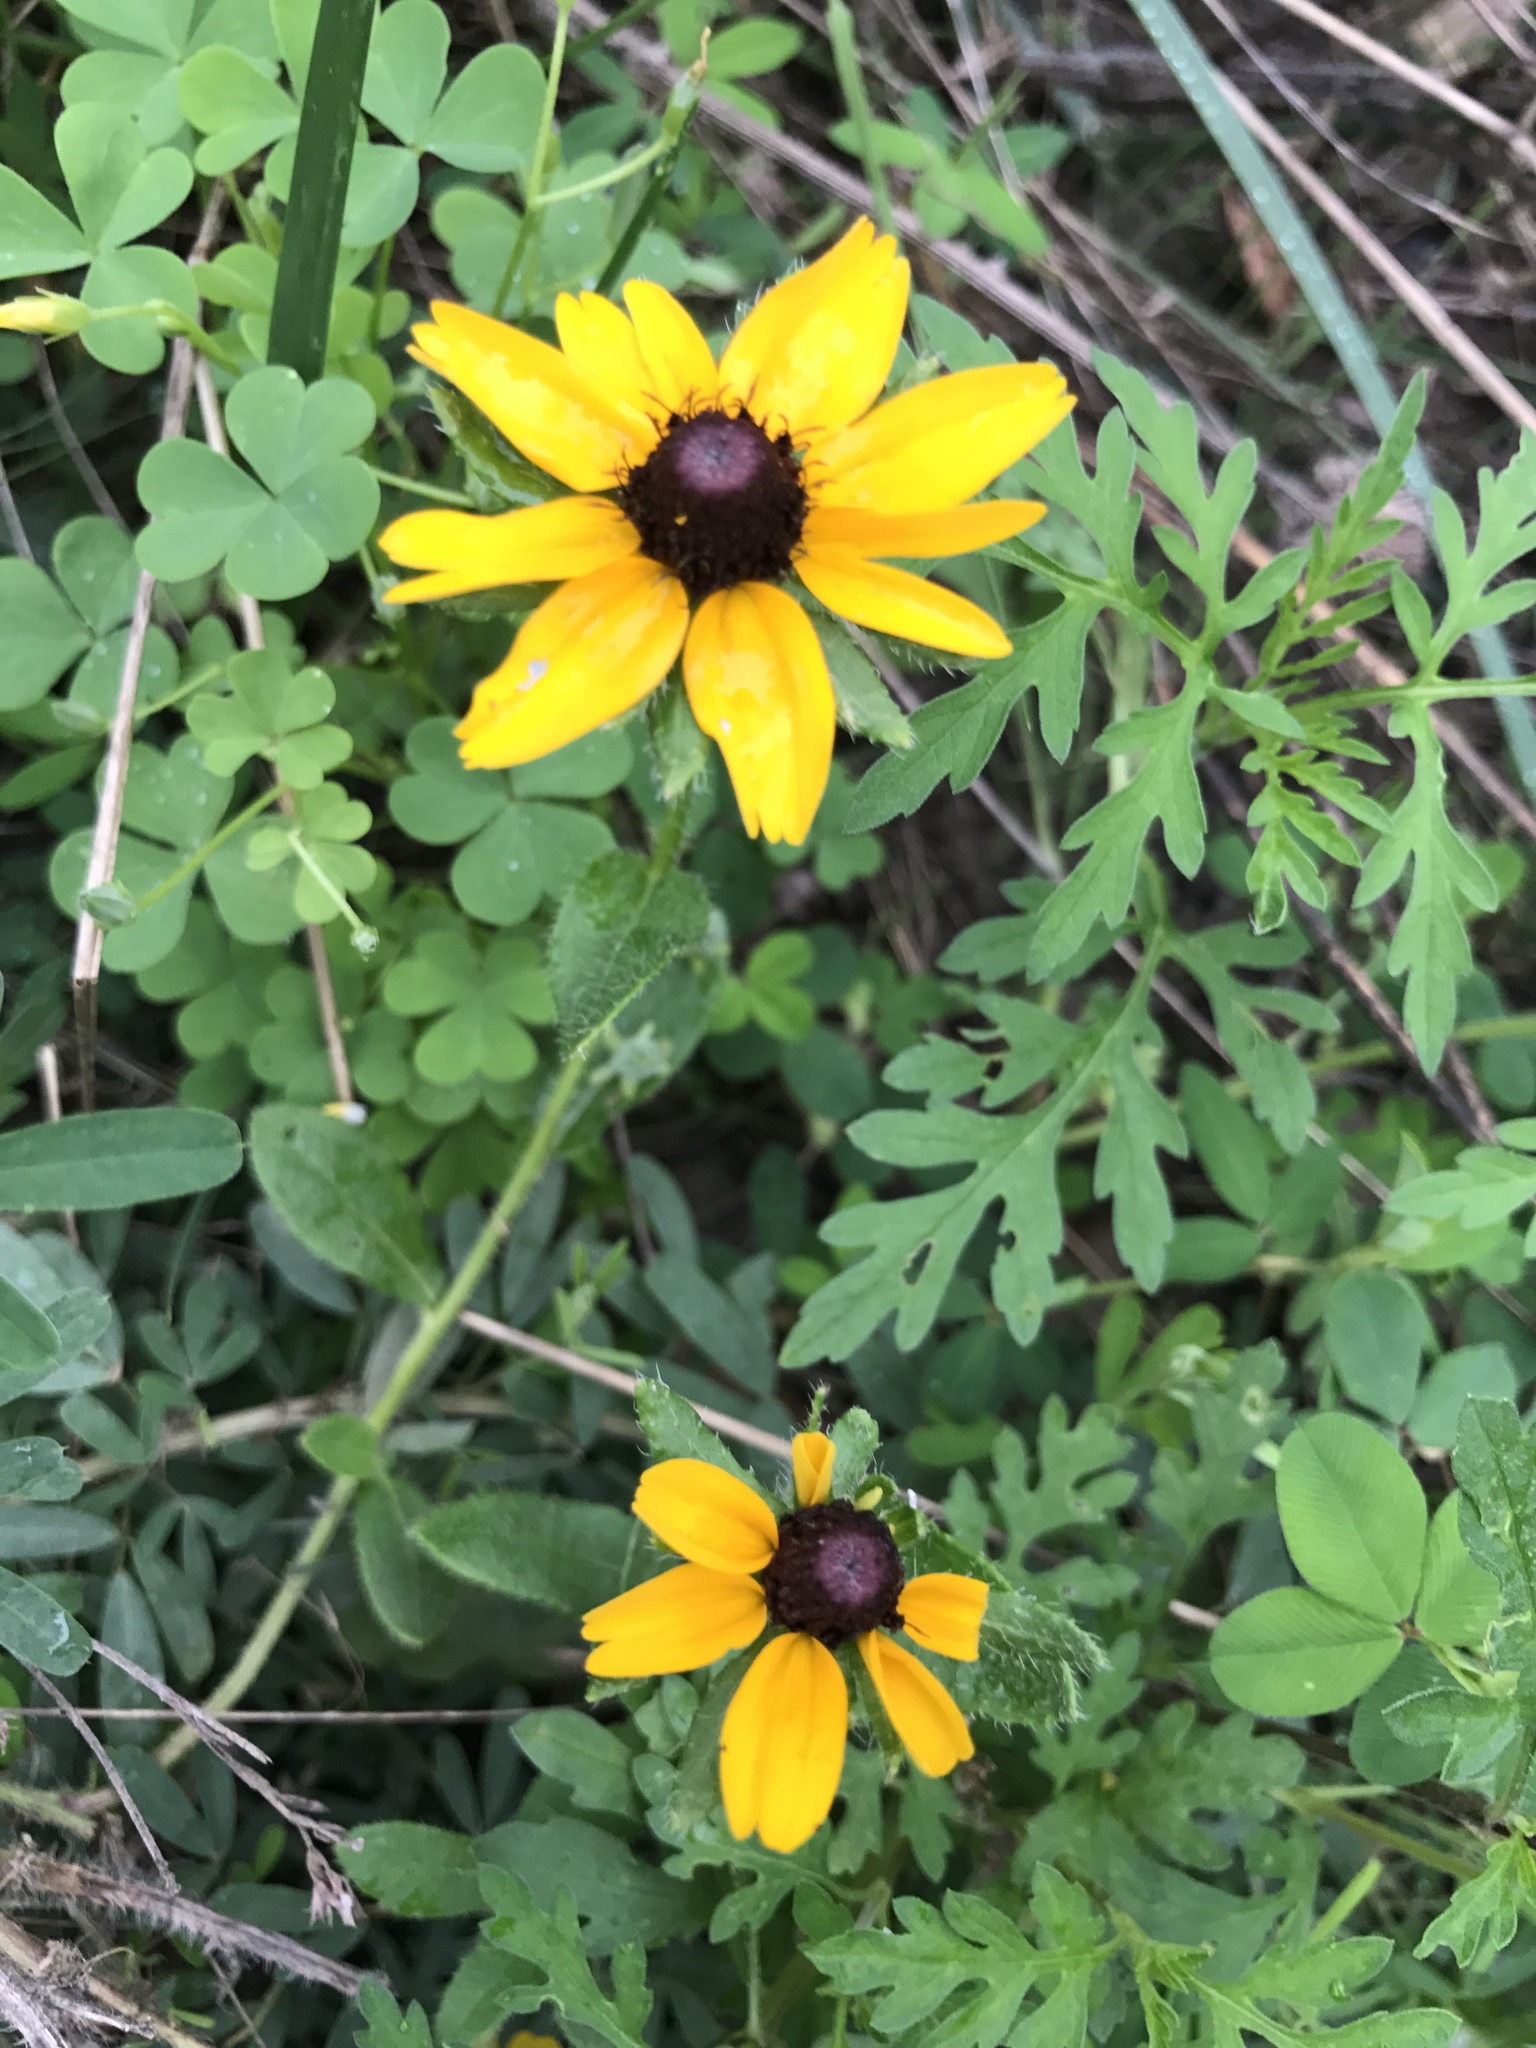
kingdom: Plantae
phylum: Tracheophyta
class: Magnoliopsida
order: Asterales
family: Asteraceae
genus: Rudbeckia
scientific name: Rudbeckia hirta
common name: Black-eyed-susan
